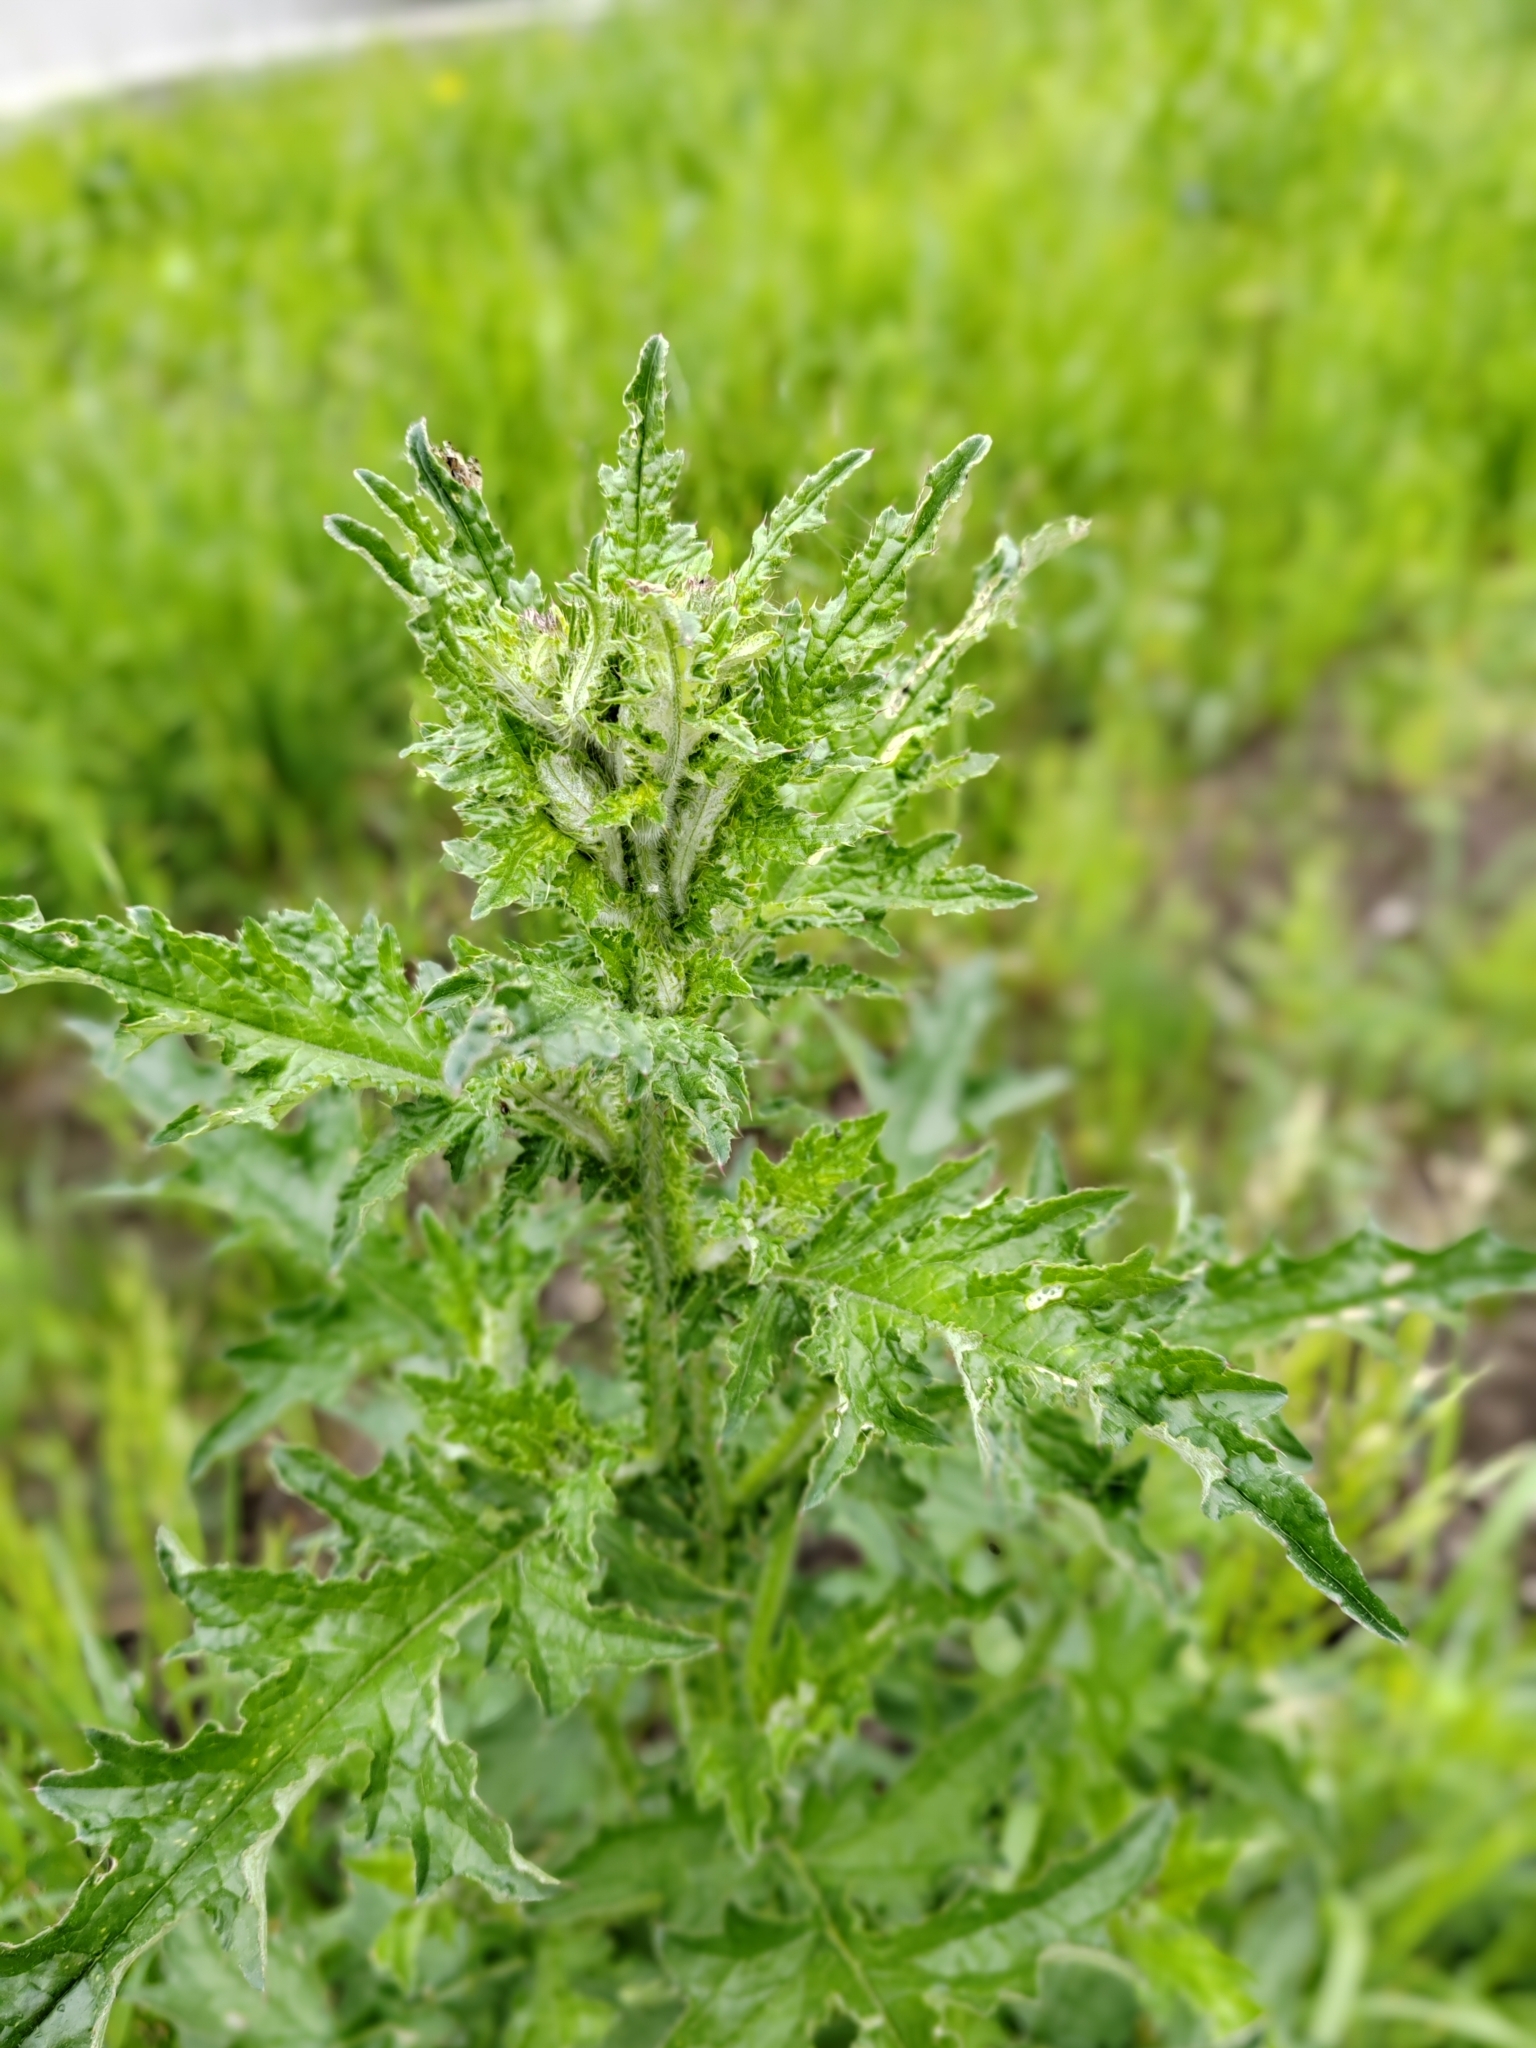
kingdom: Plantae
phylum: Tracheophyta
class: Magnoliopsida
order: Asterales
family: Asteraceae
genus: Carduus
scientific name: Carduus crispus
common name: Welted thistle
